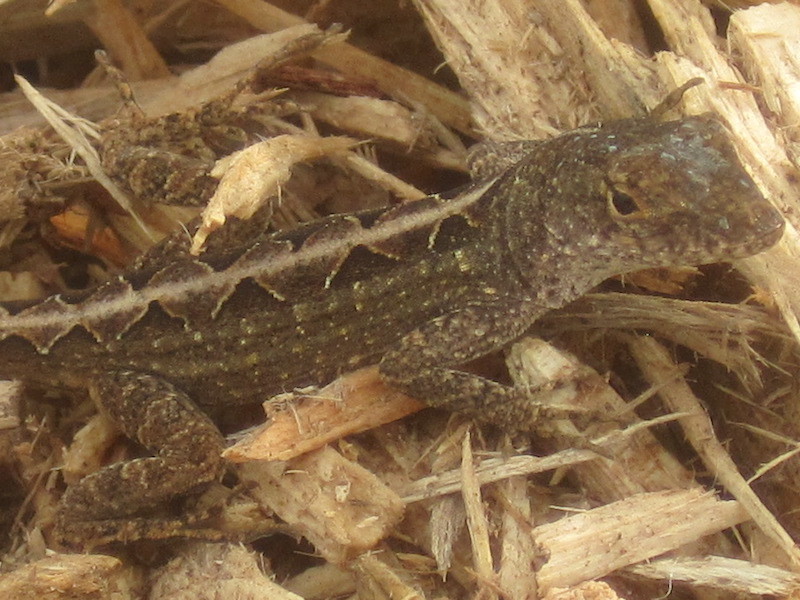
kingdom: Animalia
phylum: Chordata
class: Squamata
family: Dactyloidae
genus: Anolis
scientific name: Anolis sagrei
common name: Brown anole
